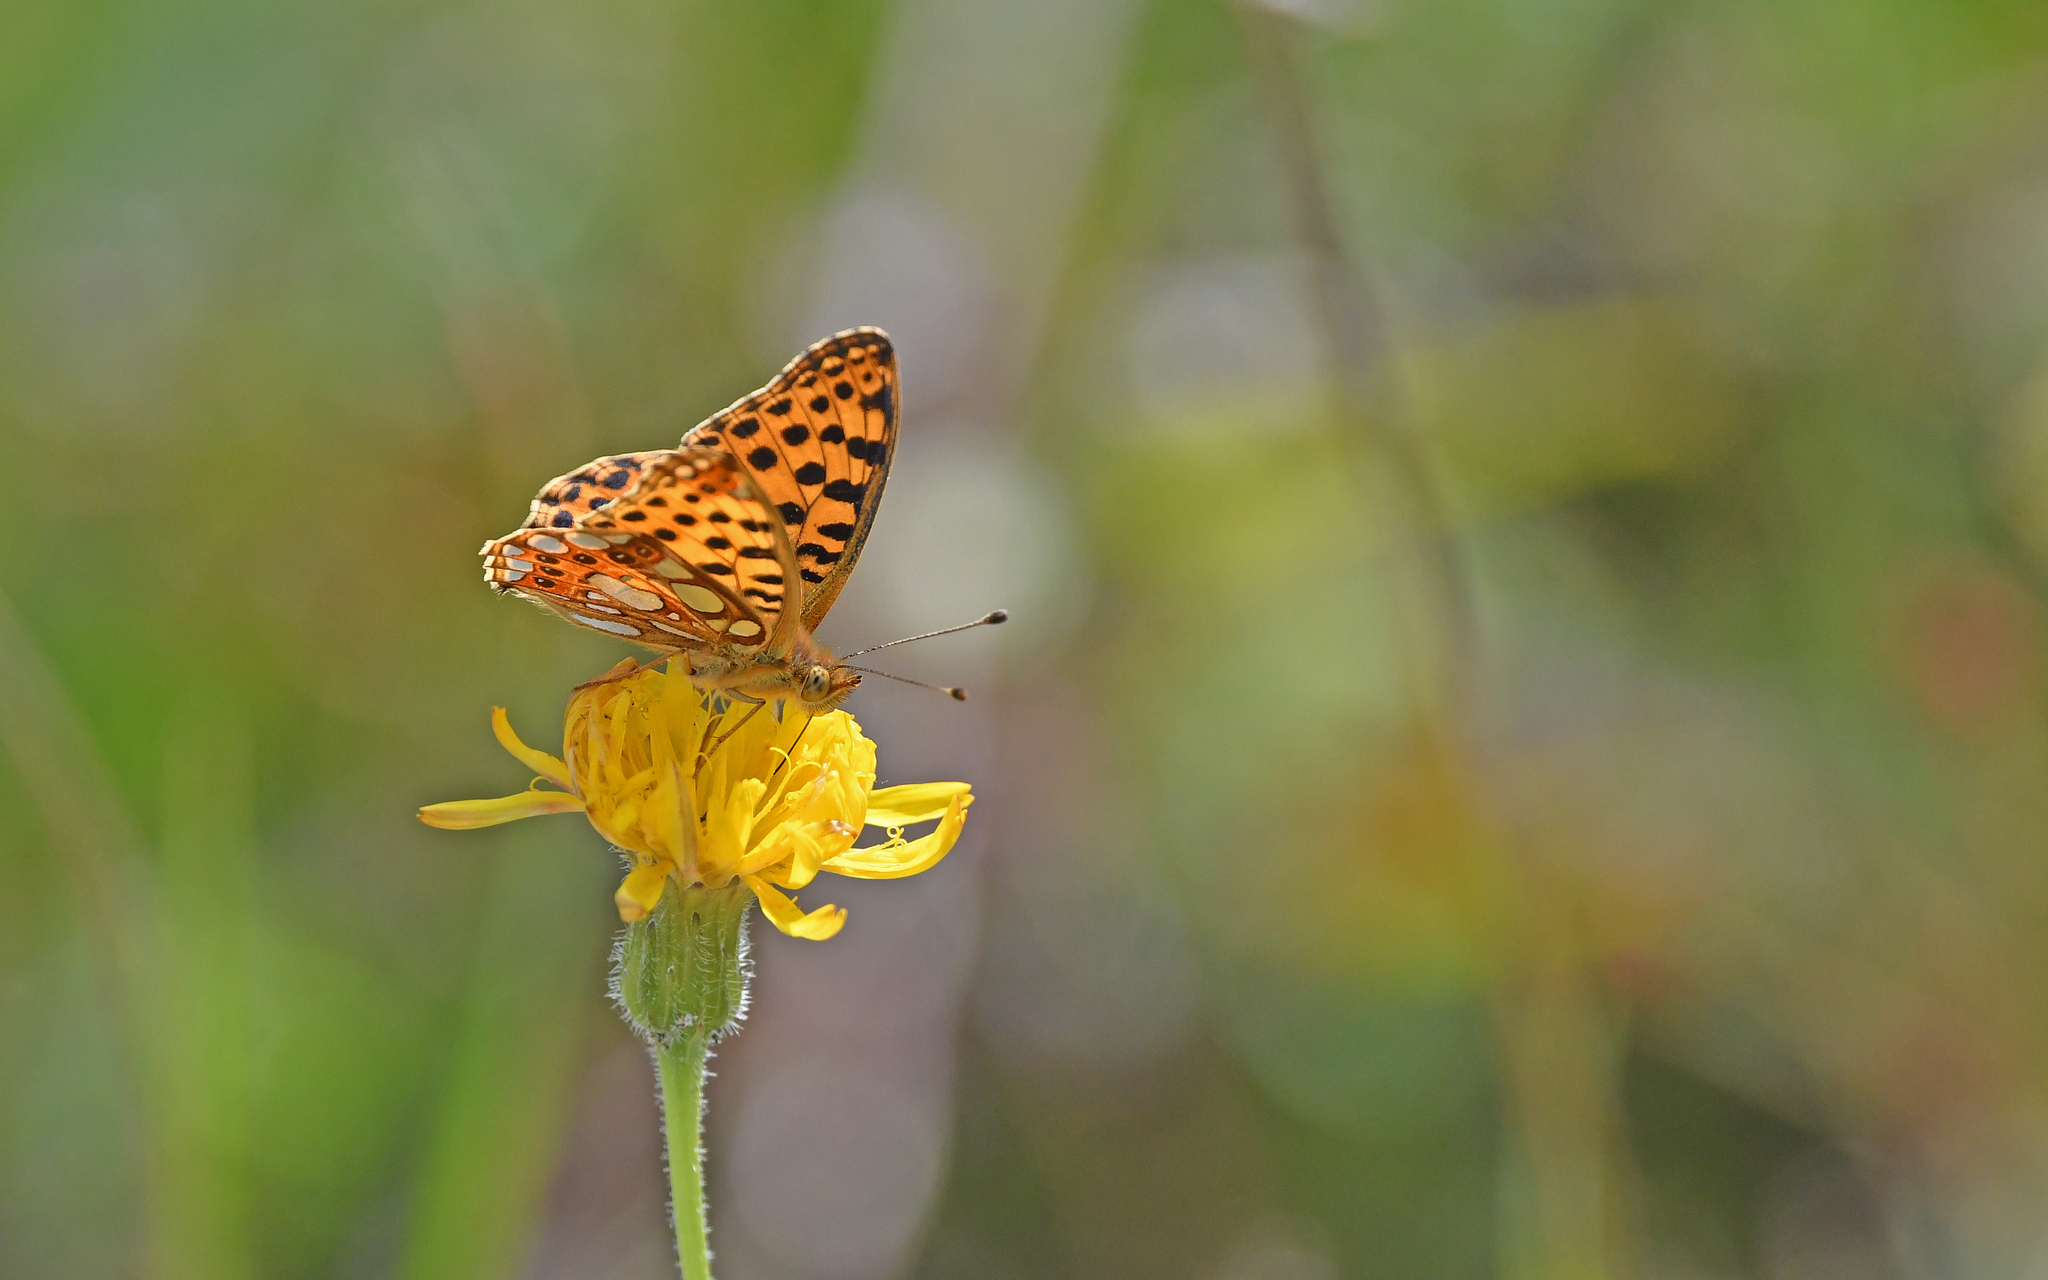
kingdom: Animalia
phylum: Arthropoda
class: Insecta
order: Lepidoptera
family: Nymphalidae
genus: Issoria
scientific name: Issoria lathonia
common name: Queen of spain fritillary
